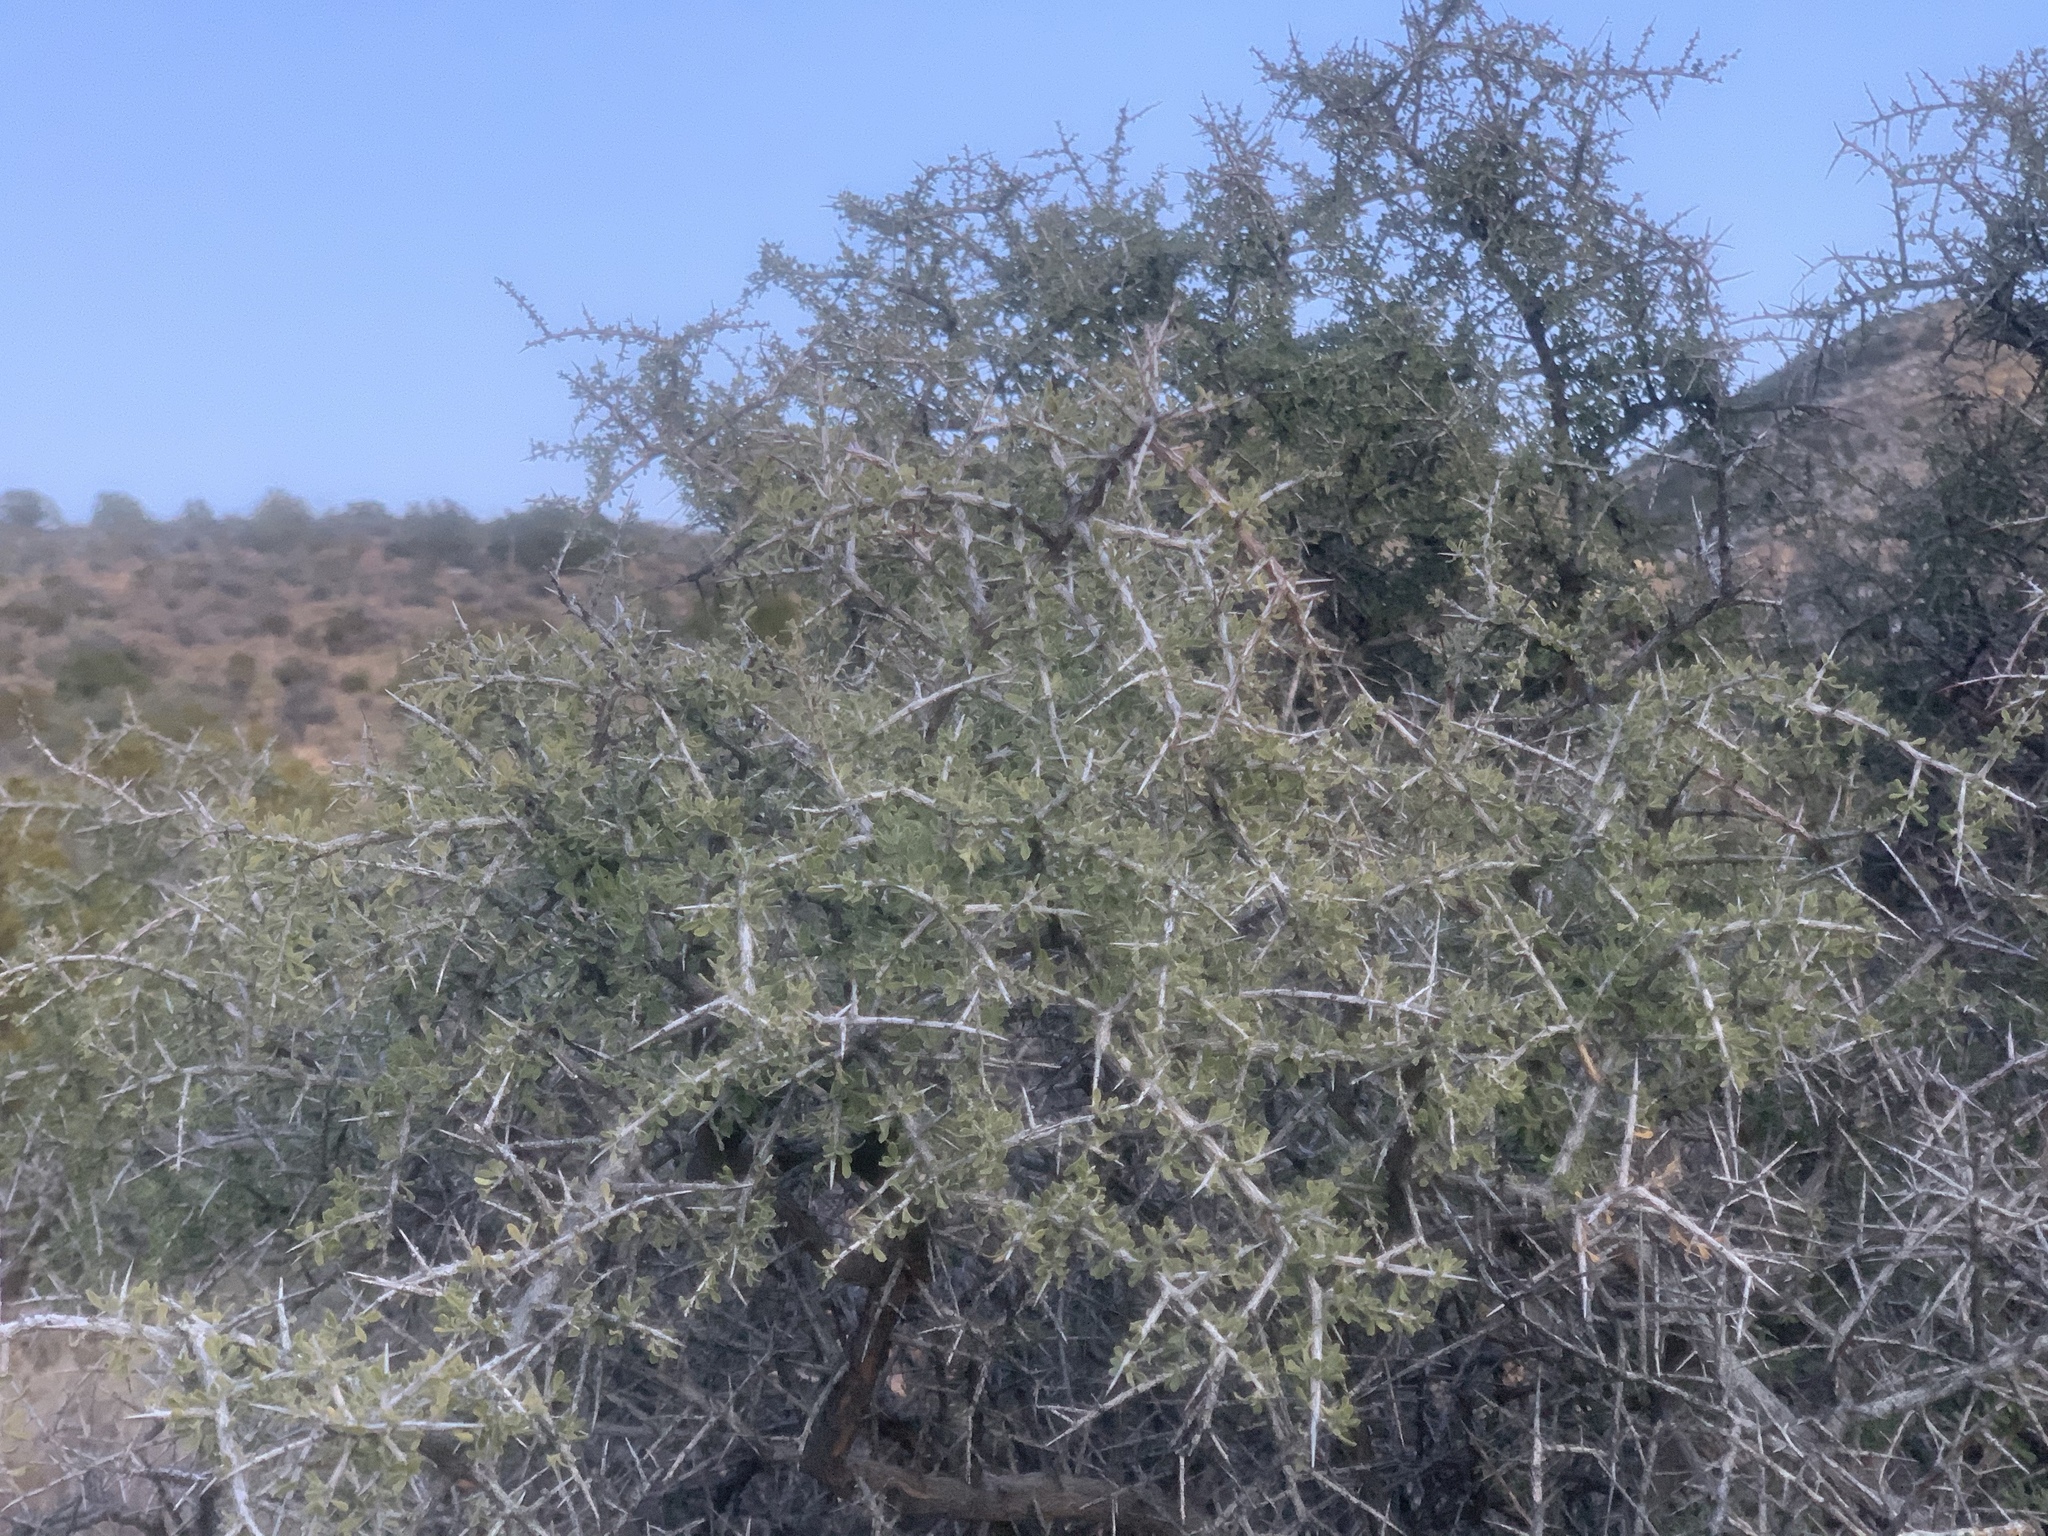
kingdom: Plantae
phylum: Tracheophyta
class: Magnoliopsida
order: Rosales
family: Rhamnaceae
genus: Condalia
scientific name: Condalia warnockii
